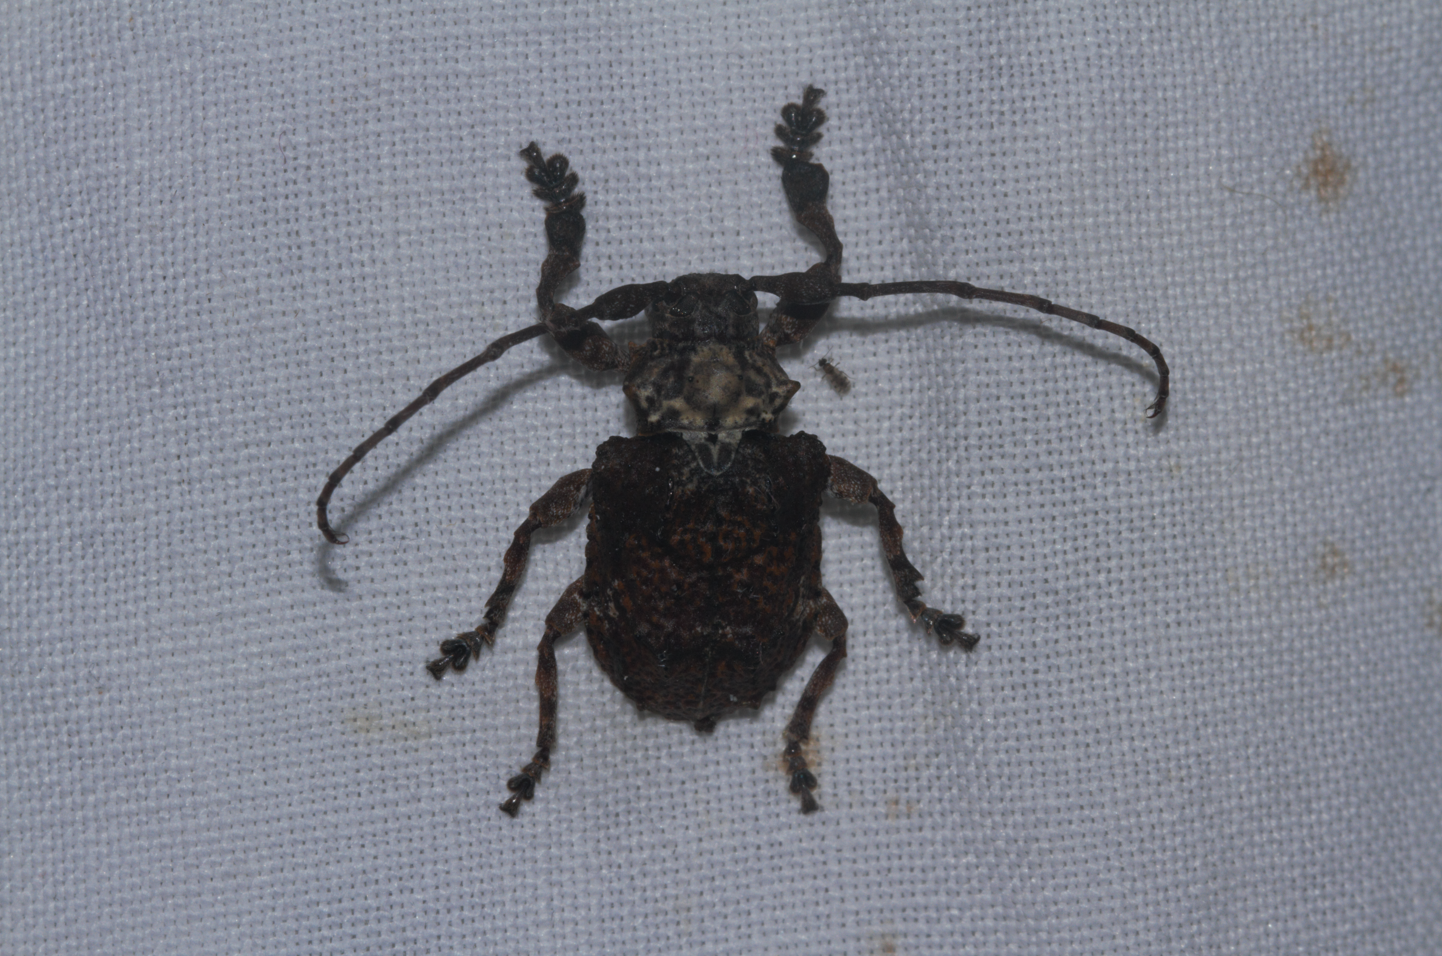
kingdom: Animalia
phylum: Arthropoda
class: Insecta
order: Coleoptera
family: Cerambycidae
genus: Onychocerus
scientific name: Onychocerus crassus
